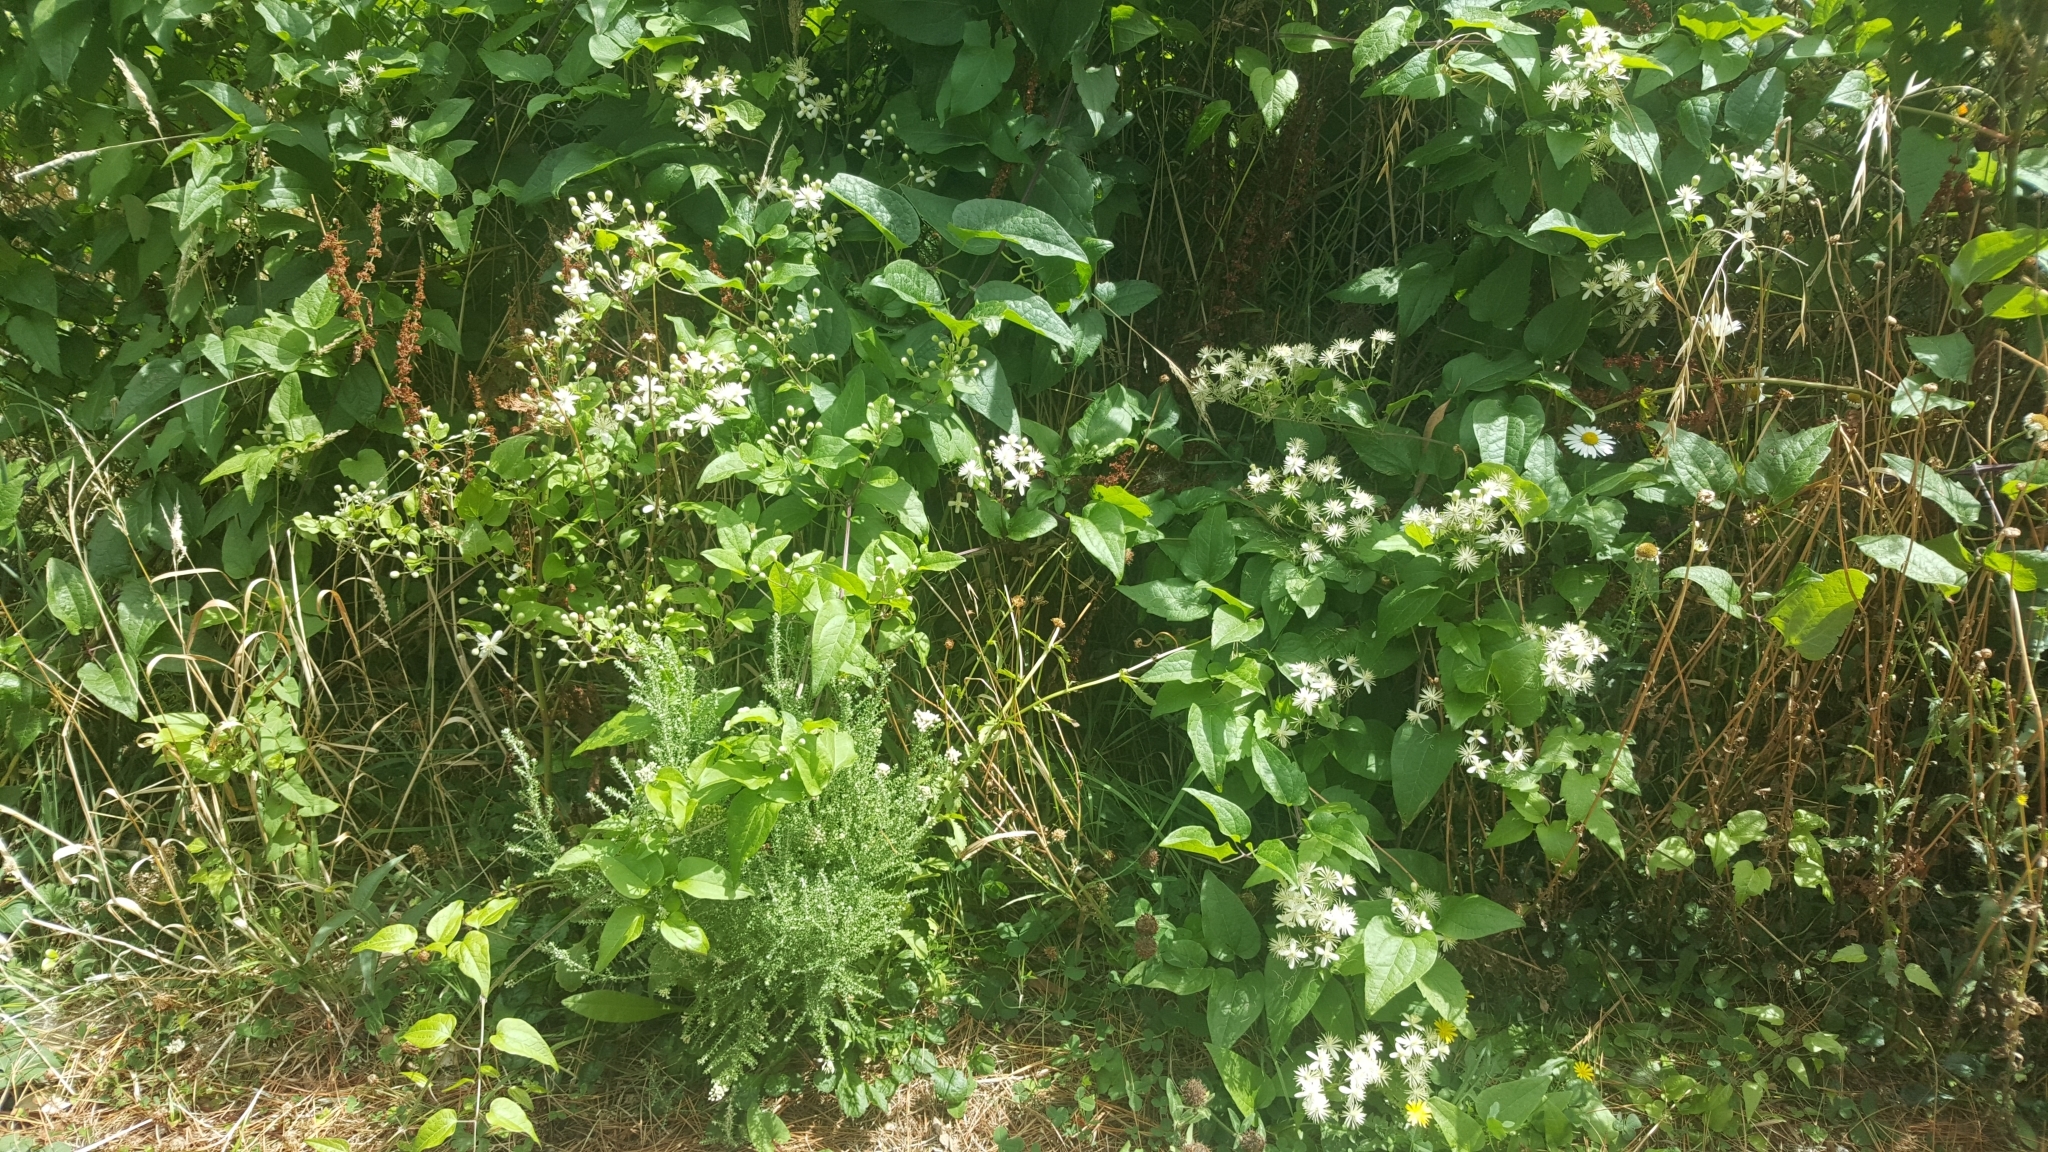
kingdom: Plantae
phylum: Tracheophyta
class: Magnoliopsida
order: Ranunculales
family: Ranunculaceae
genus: Clematis
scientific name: Clematis vitalba
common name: Evergreen clematis
